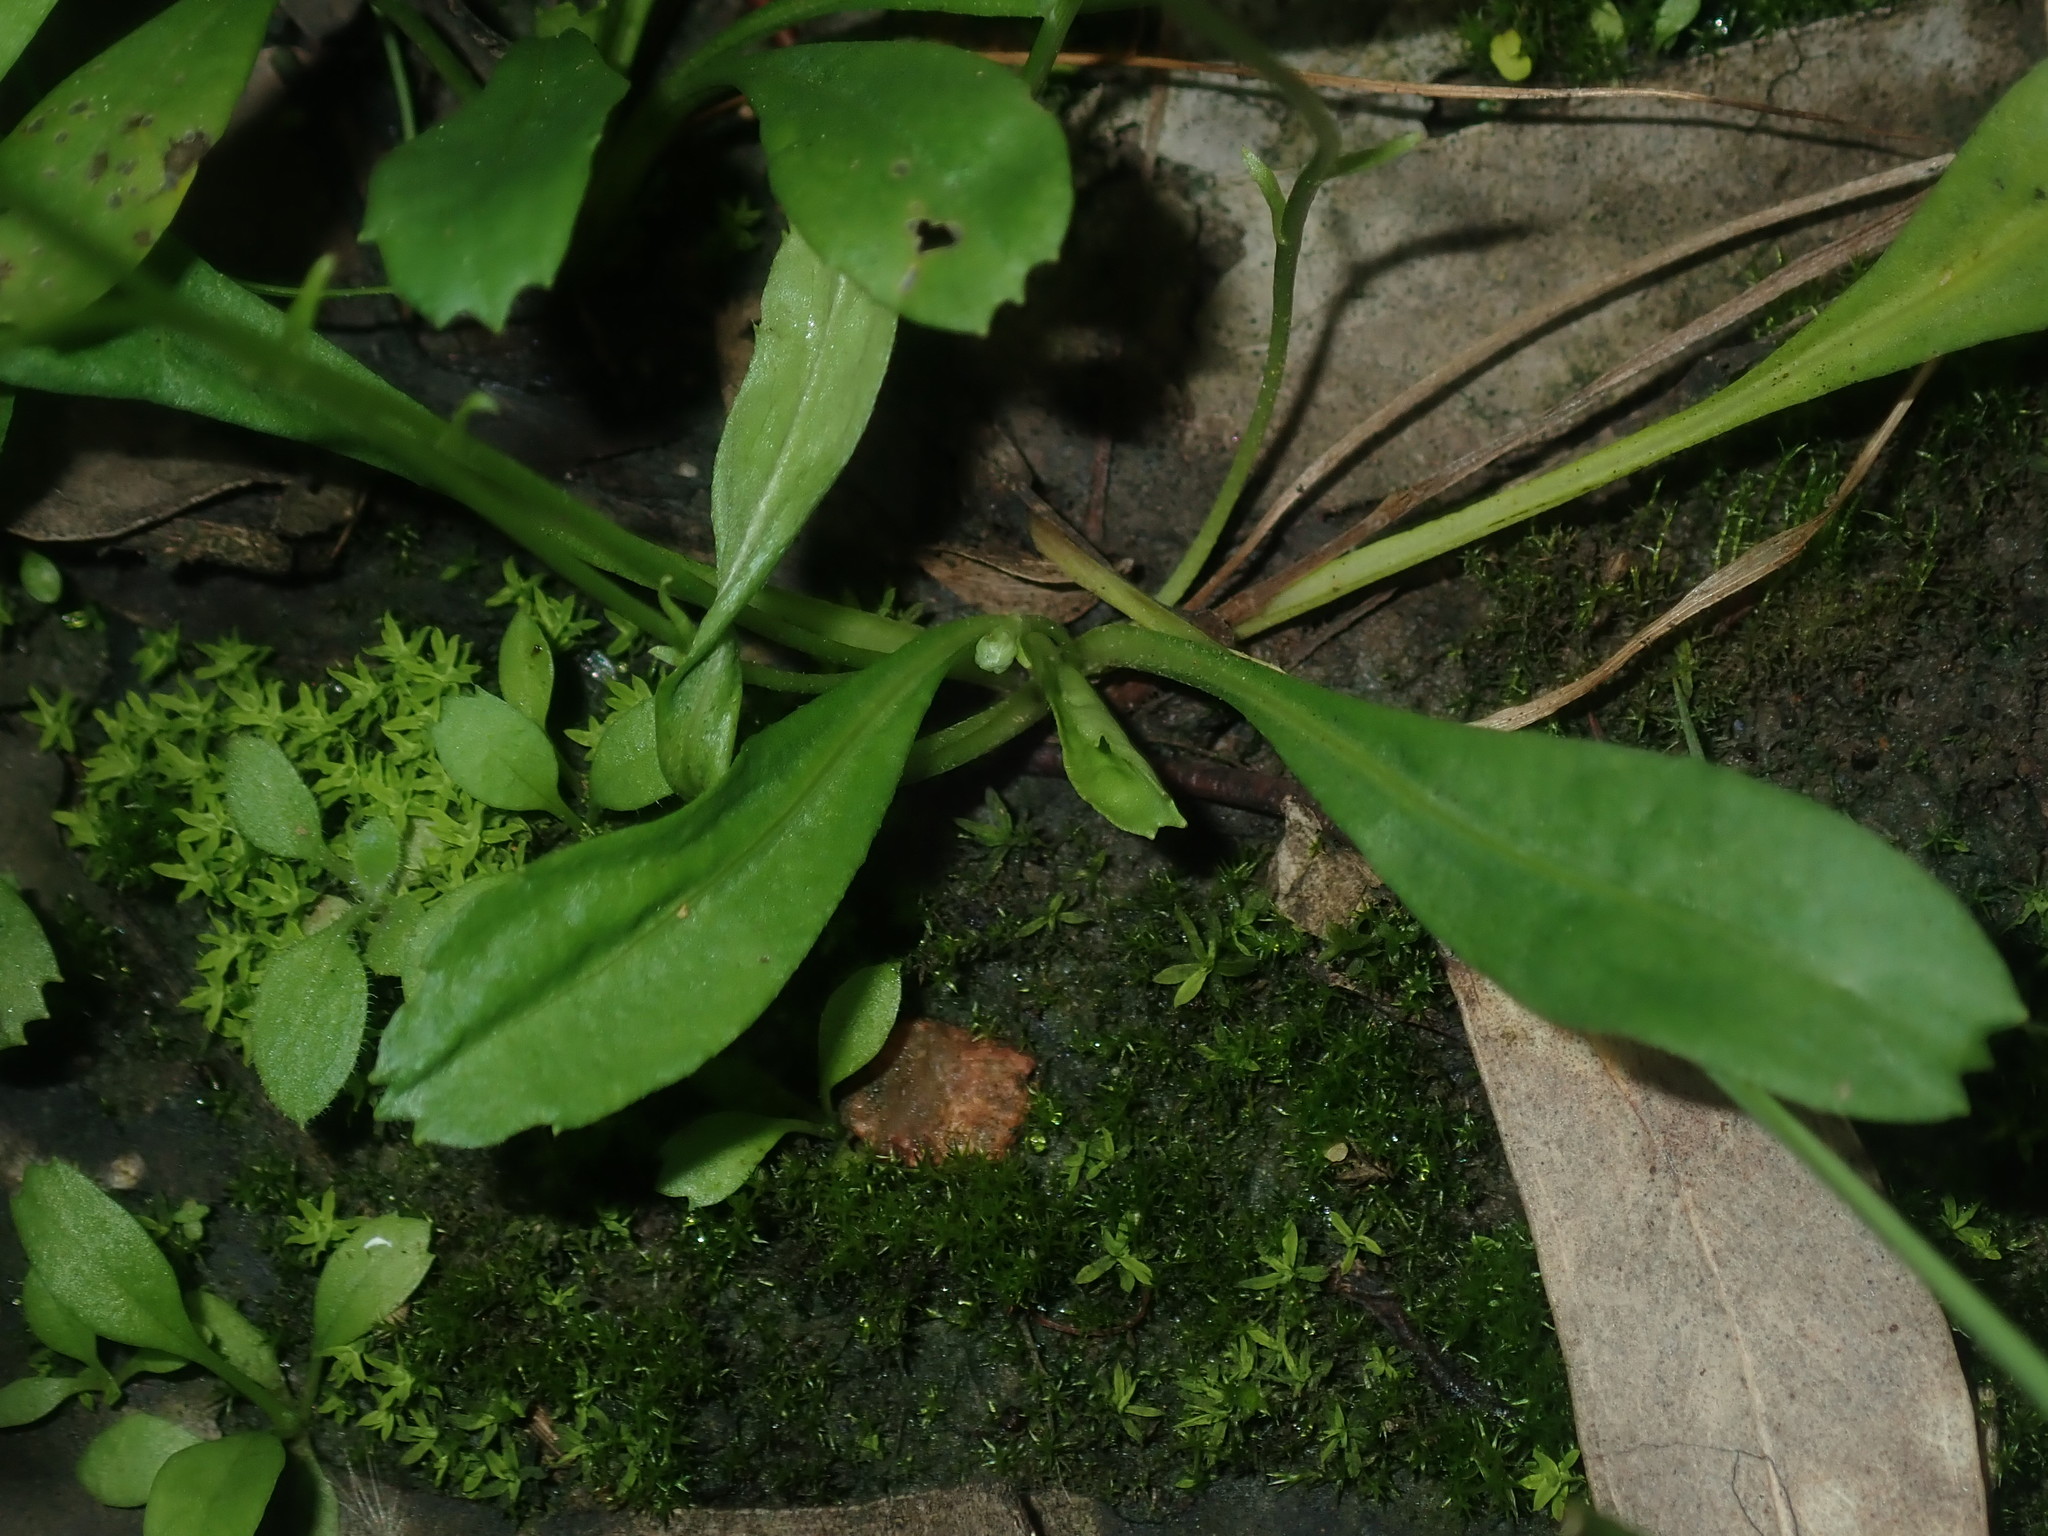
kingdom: Plantae
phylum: Tracheophyta
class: Magnoliopsida
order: Asterales
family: Asteraceae
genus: Solenogyne
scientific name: Solenogyne bellioides
